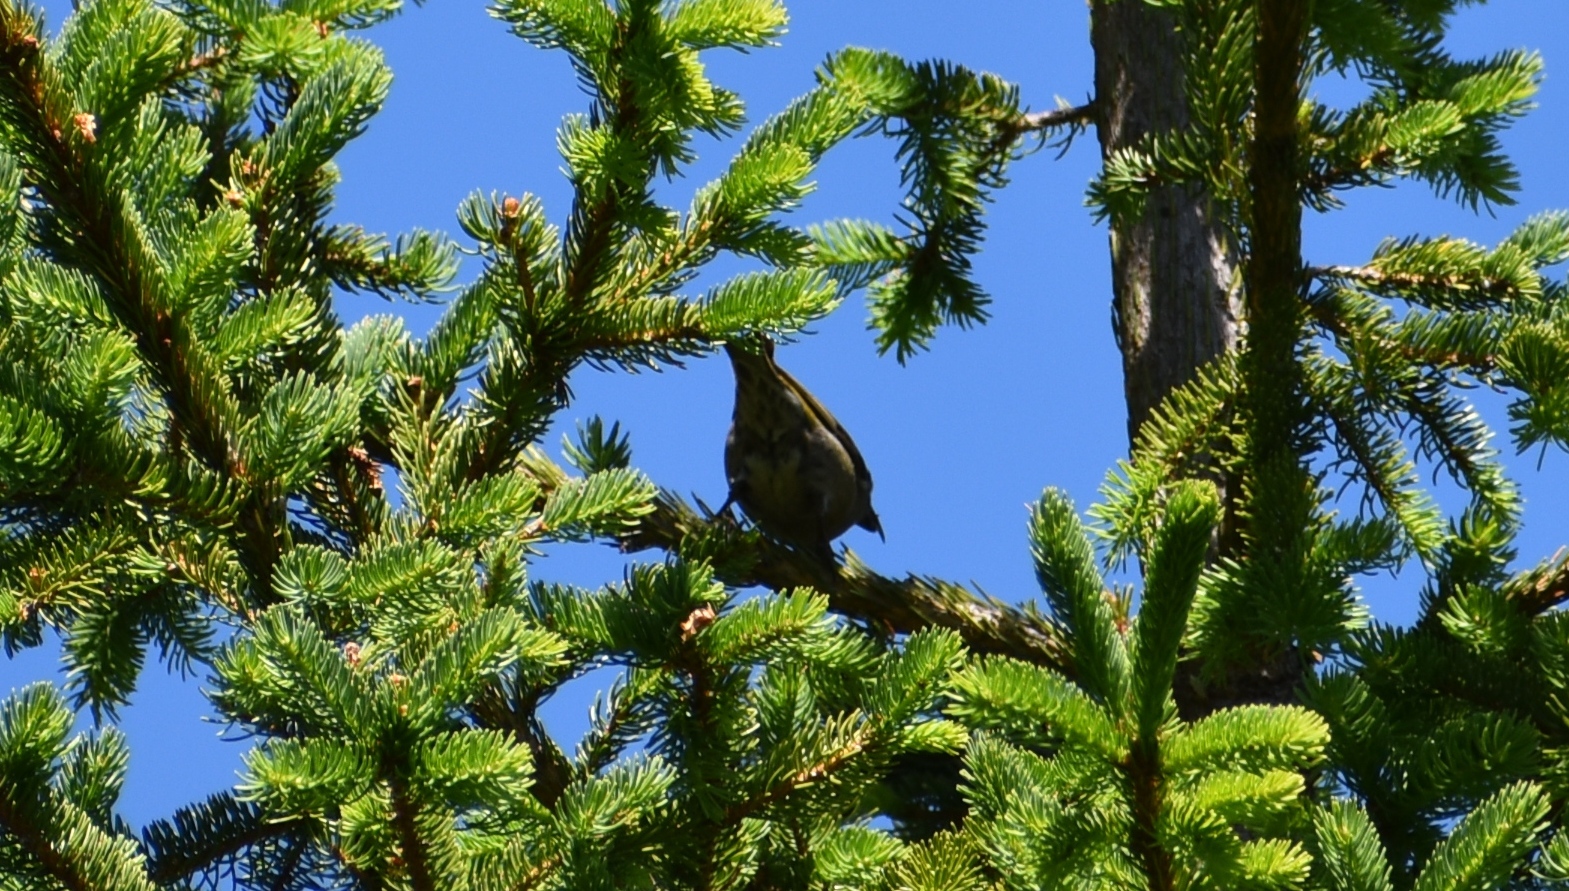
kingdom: Animalia
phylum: Chordata
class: Aves
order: Passeriformes
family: Fringillidae
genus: Loxia
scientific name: Loxia curvirostra
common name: Red crossbill
